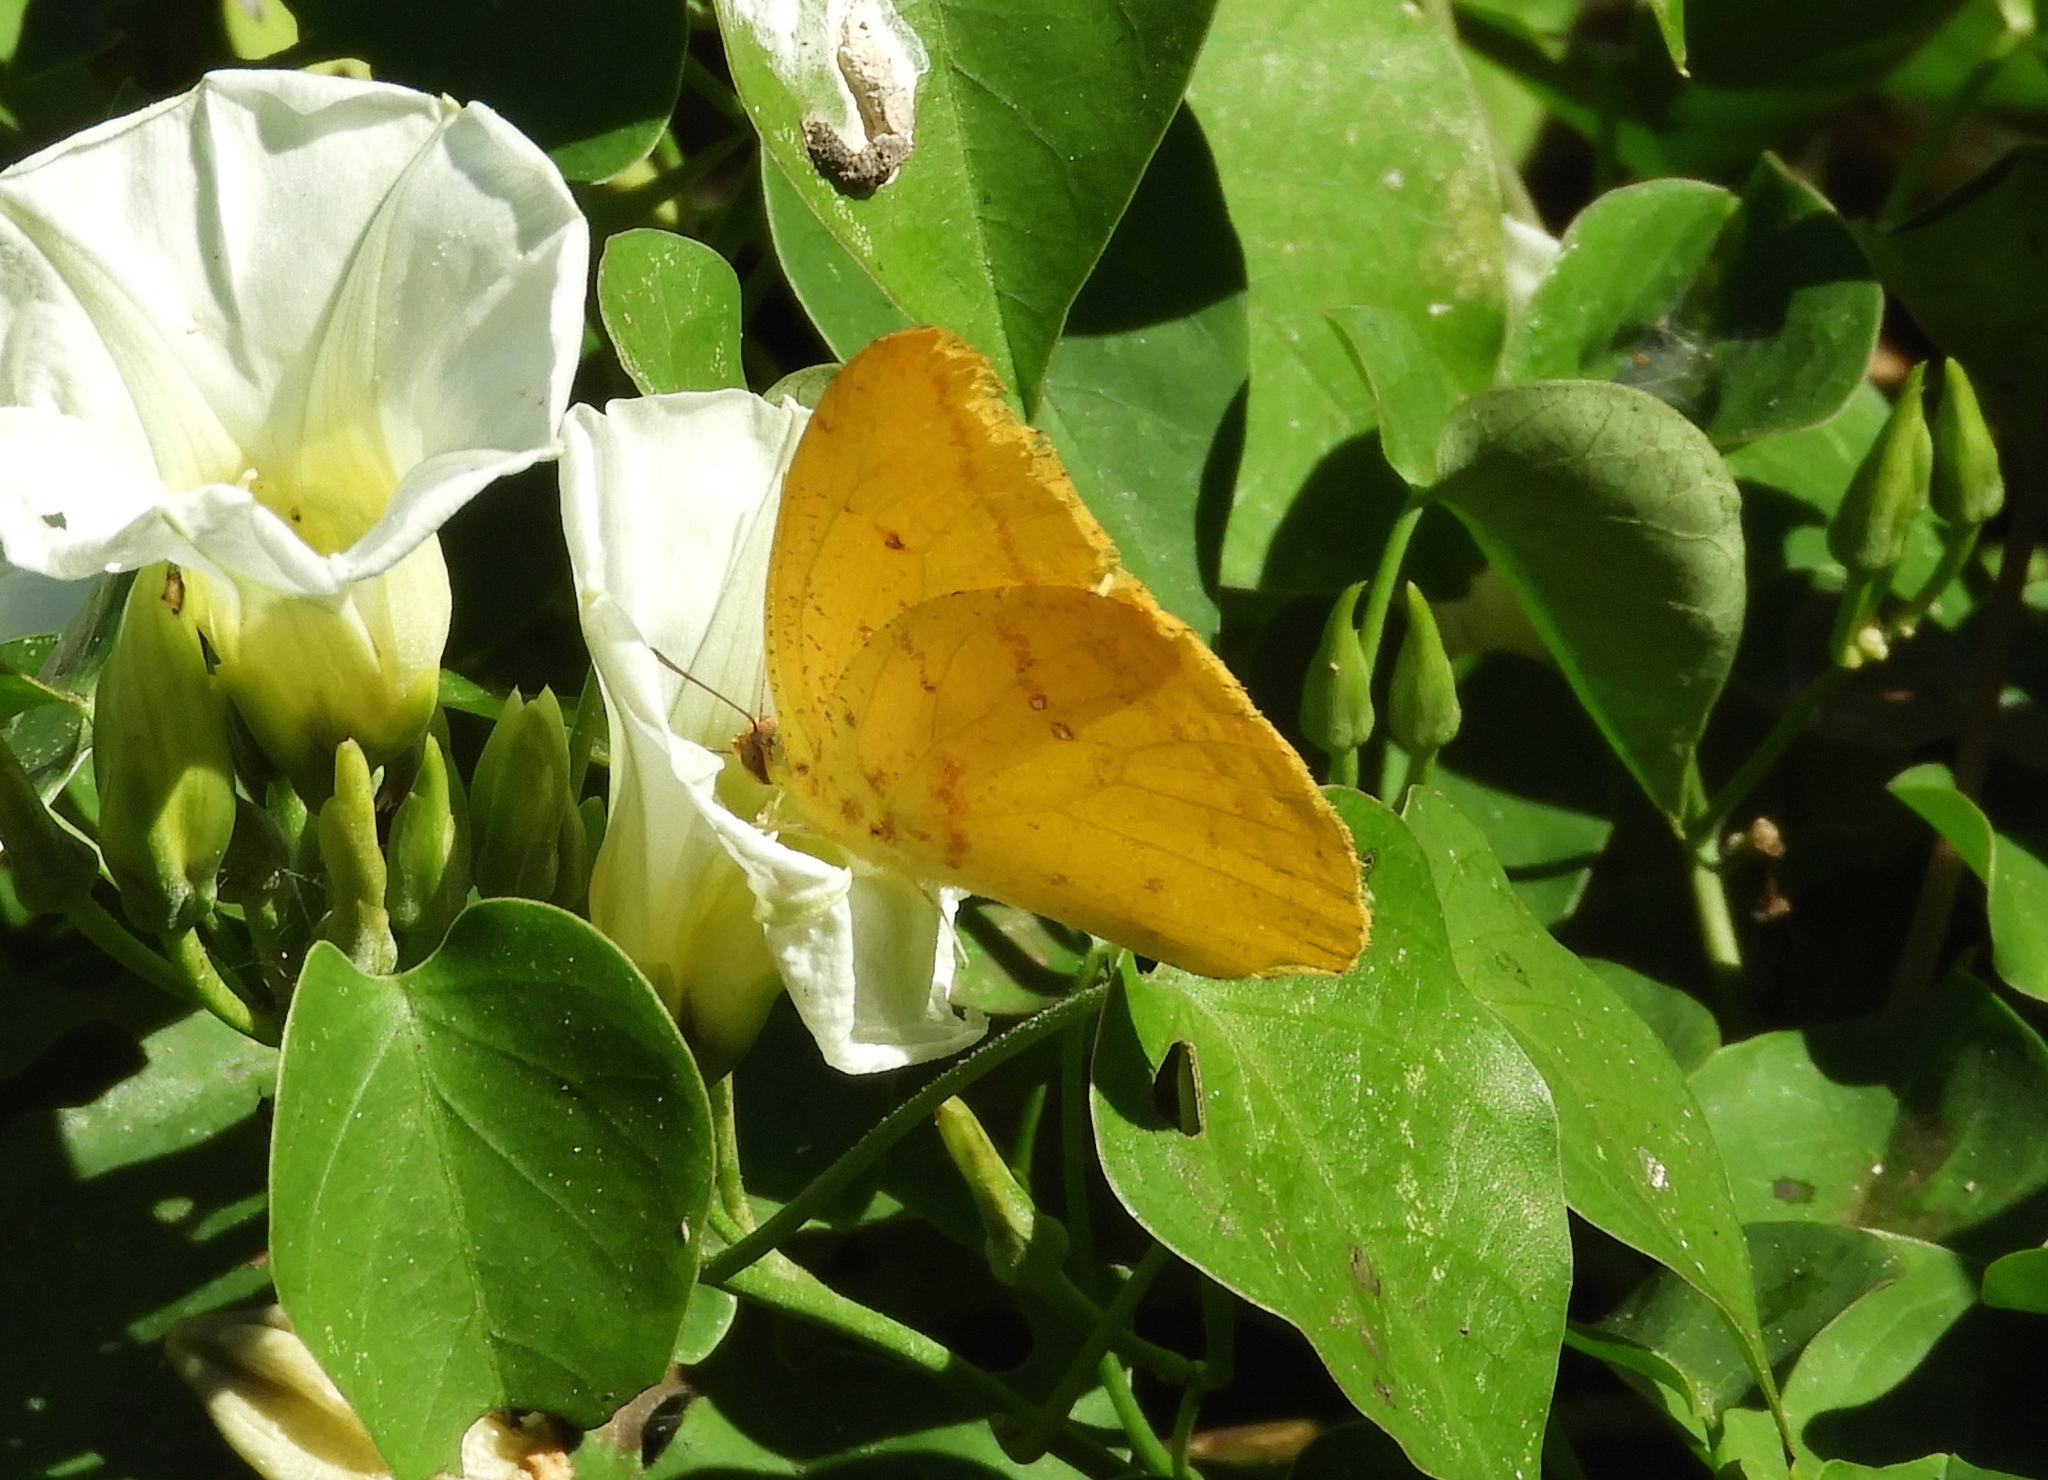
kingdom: Animalia
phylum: Arthropoda
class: Insecta
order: Lepidoptera
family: Pieridae
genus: Phoebis
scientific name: Phoebis agarithe
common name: Large orange sulphur
